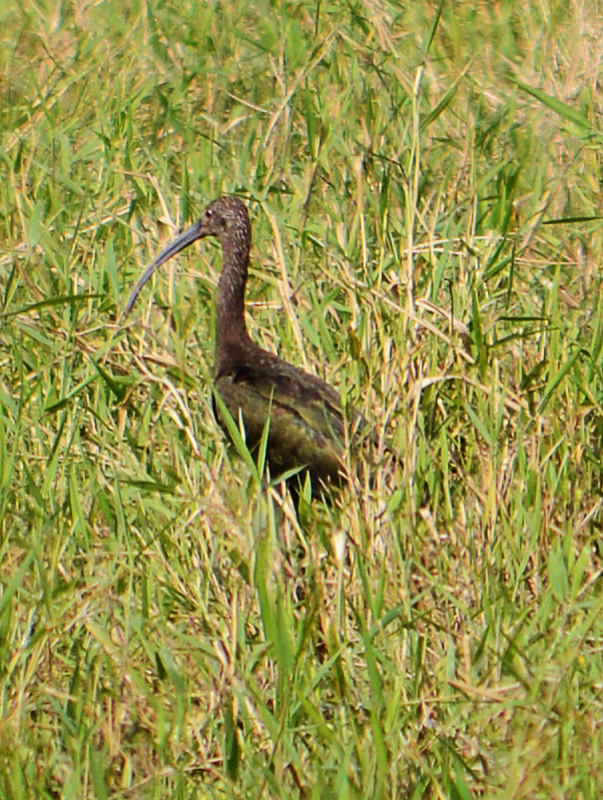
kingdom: Animalia
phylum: Chordata
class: Aves
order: Pelecaniformes
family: Threskiornithidae
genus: Plegadis
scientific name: Plegadis chihi
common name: White-faced ibis
